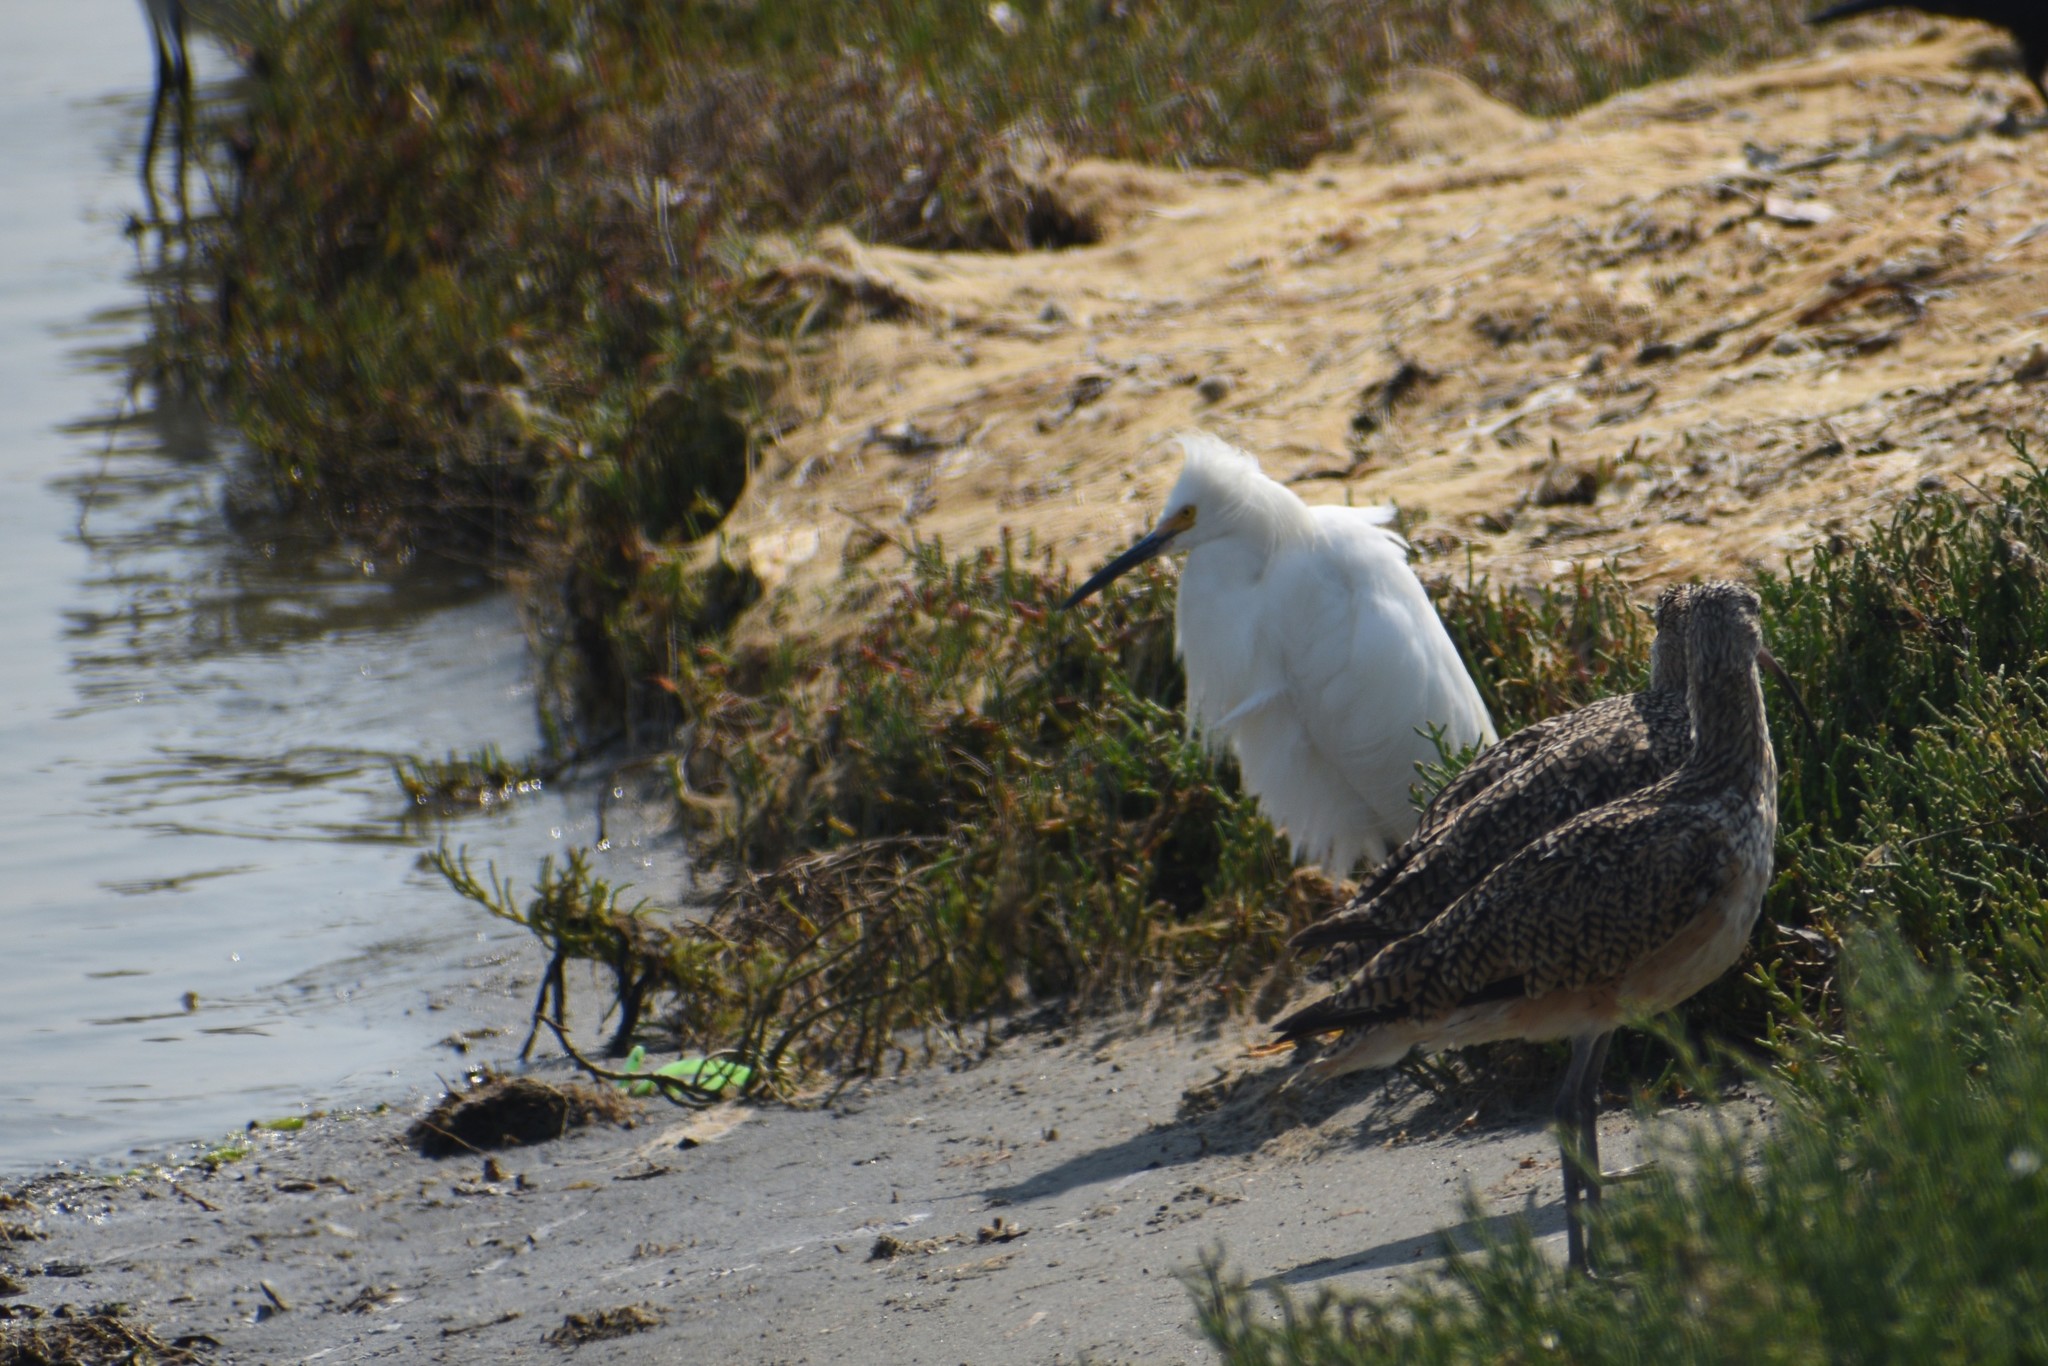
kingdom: Animalia
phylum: Chordata
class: Aves
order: Pelecaniformes
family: Ardeidae
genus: Egretta
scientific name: Egretta thula
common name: Snowy egret
